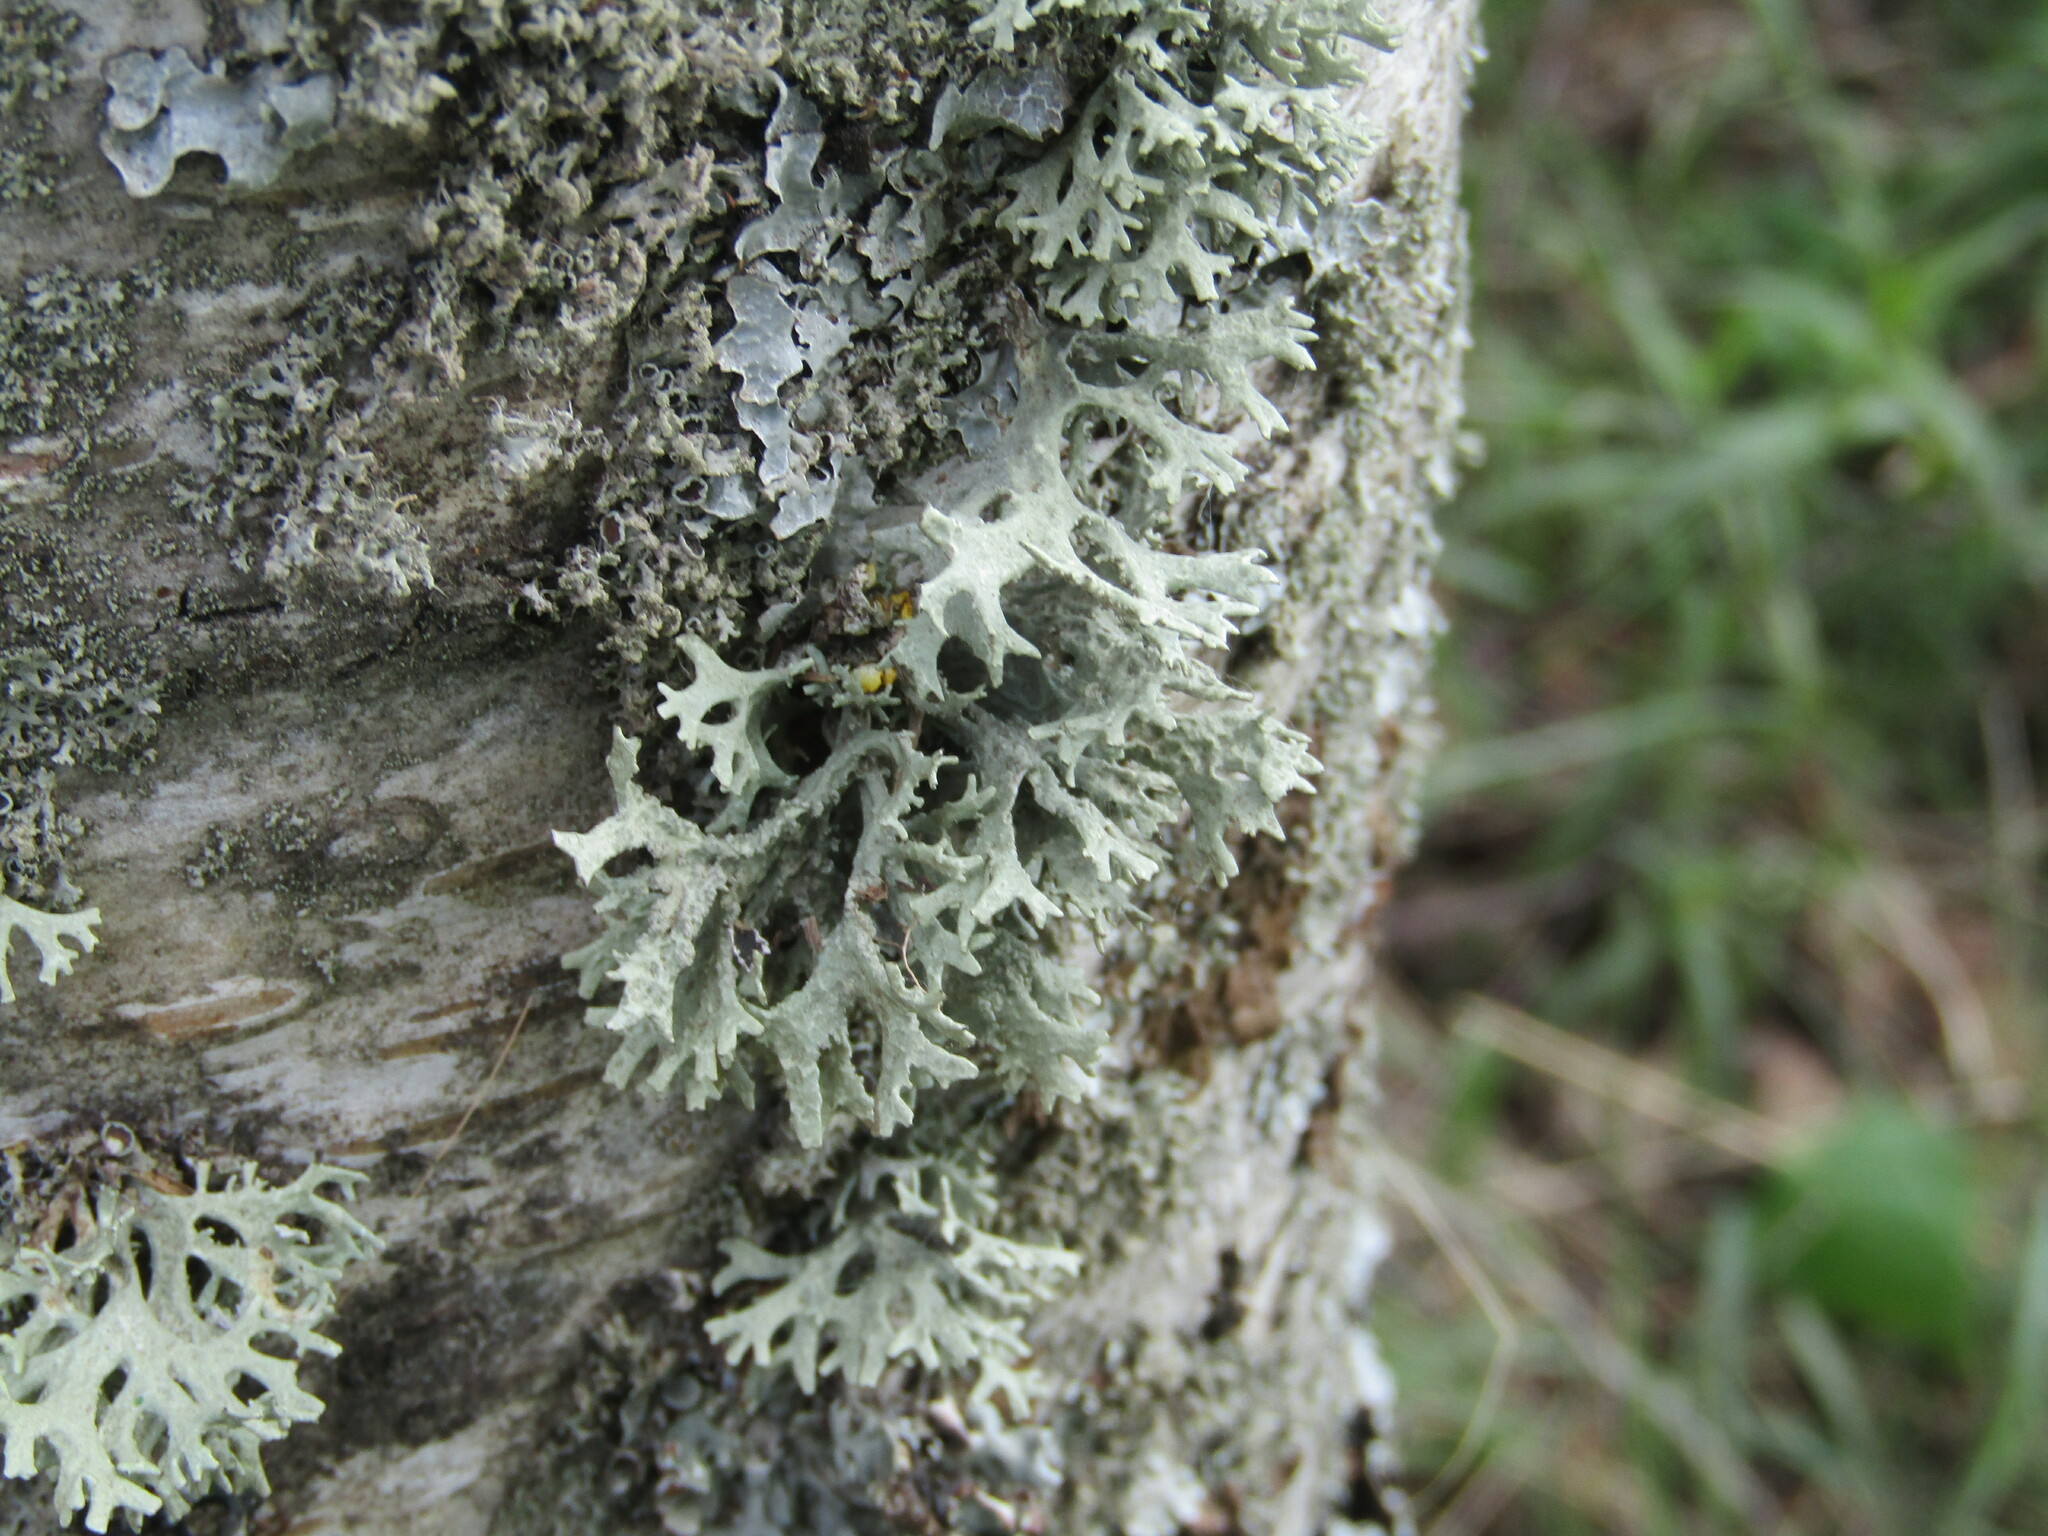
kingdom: Fungi
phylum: Ascomycota
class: Lecanoromycetes
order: Lecanorales
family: Parmeliaceae
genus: Evernia
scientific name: Evernia prunastri
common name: Oak moss
